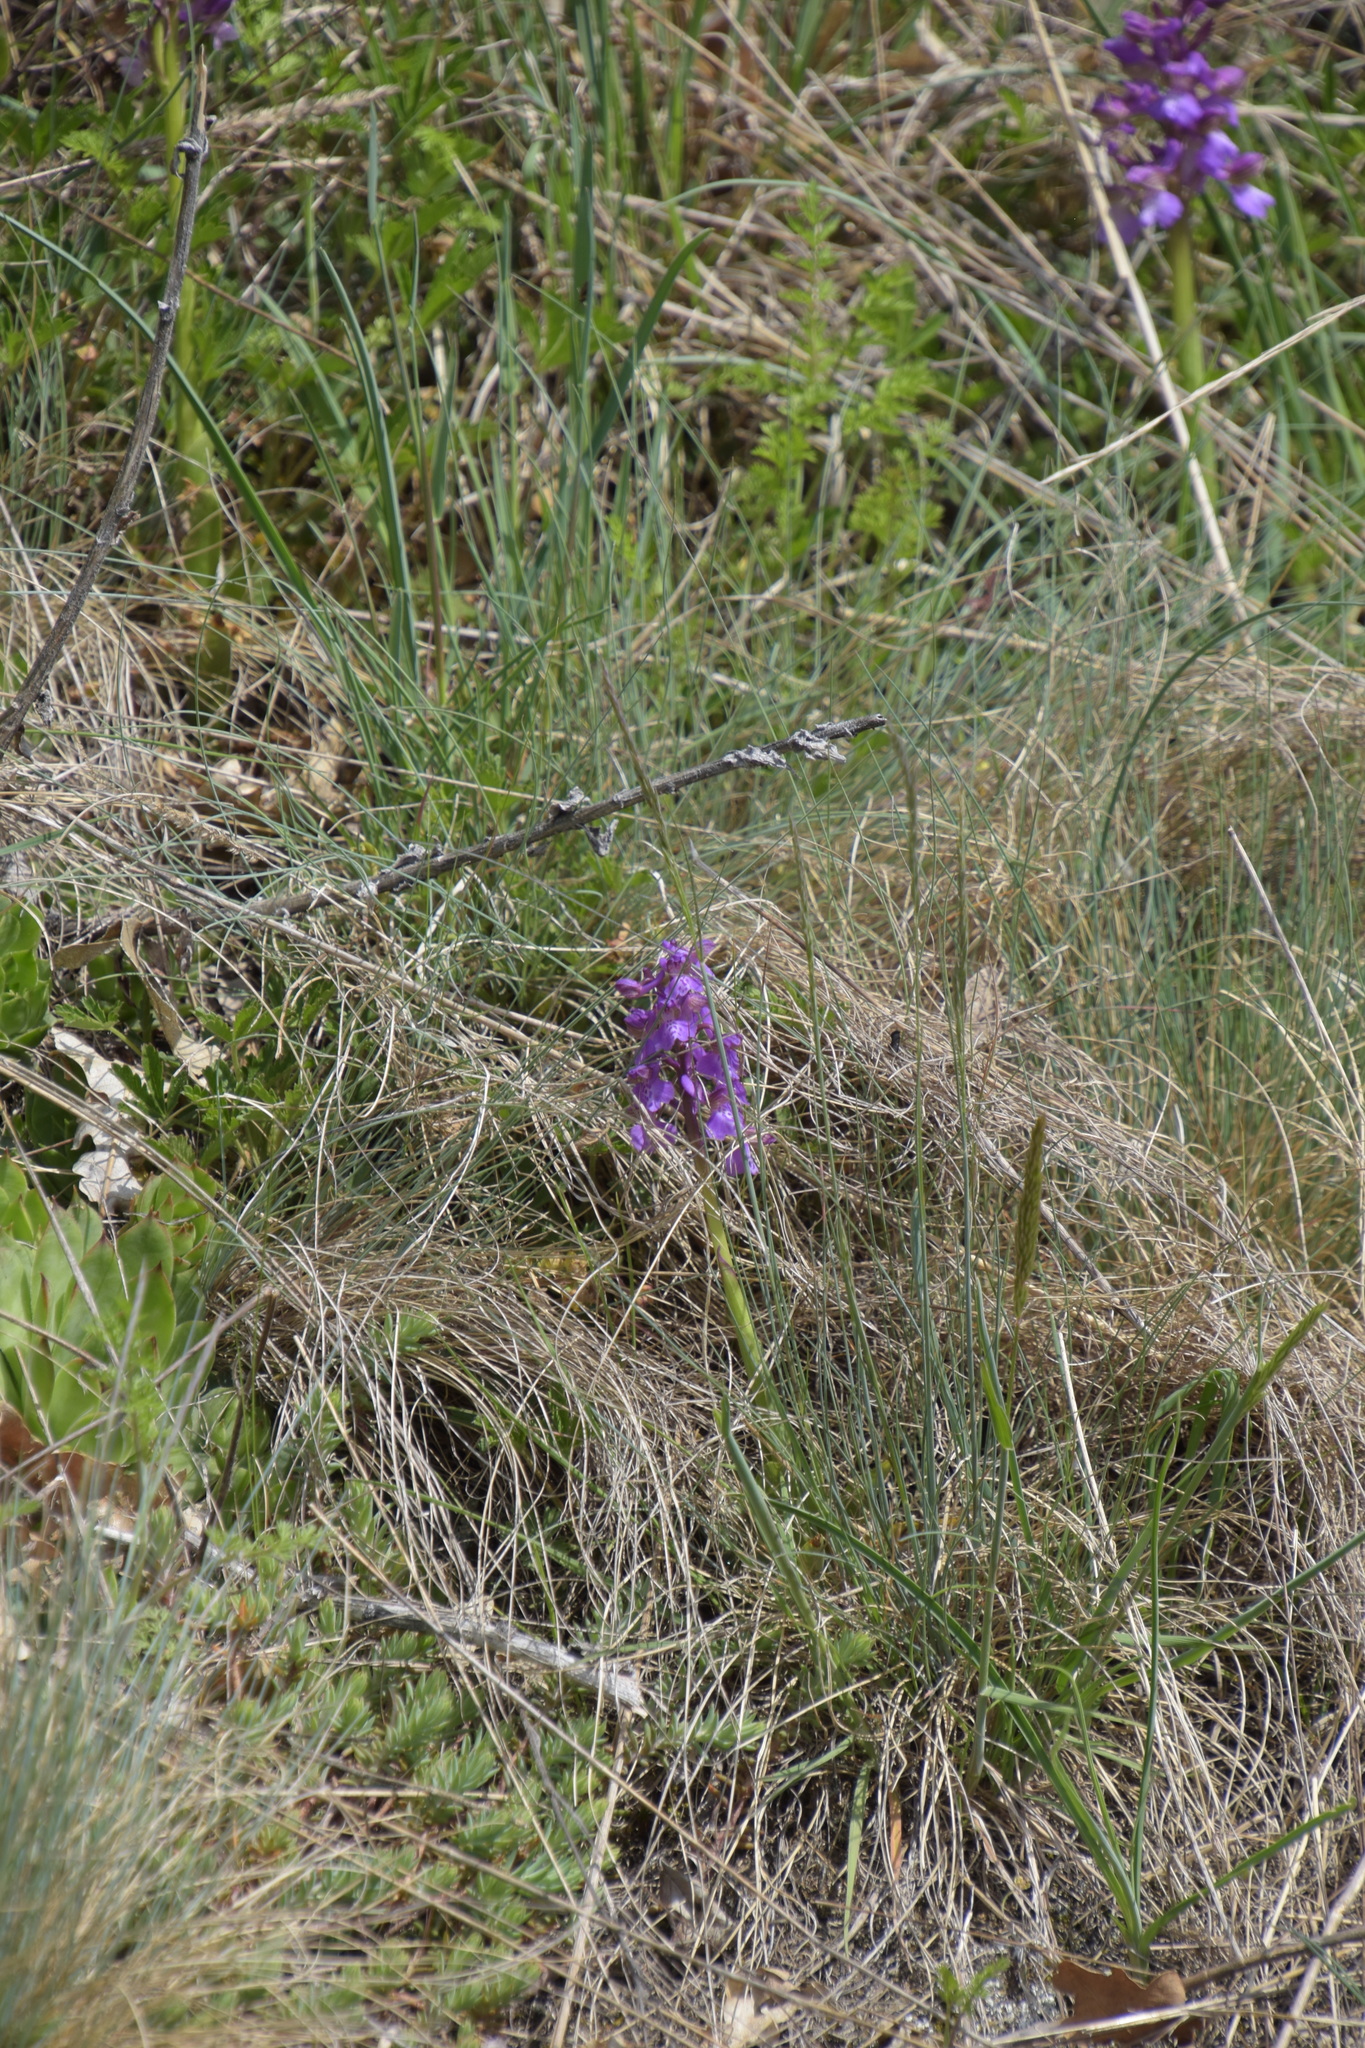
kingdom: Plantae
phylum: Tracheophyta
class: Liliopsida
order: Asparagales
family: Orchidaceae
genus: Anacamptis
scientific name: Anacamptis morio
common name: Green-winged orchid
